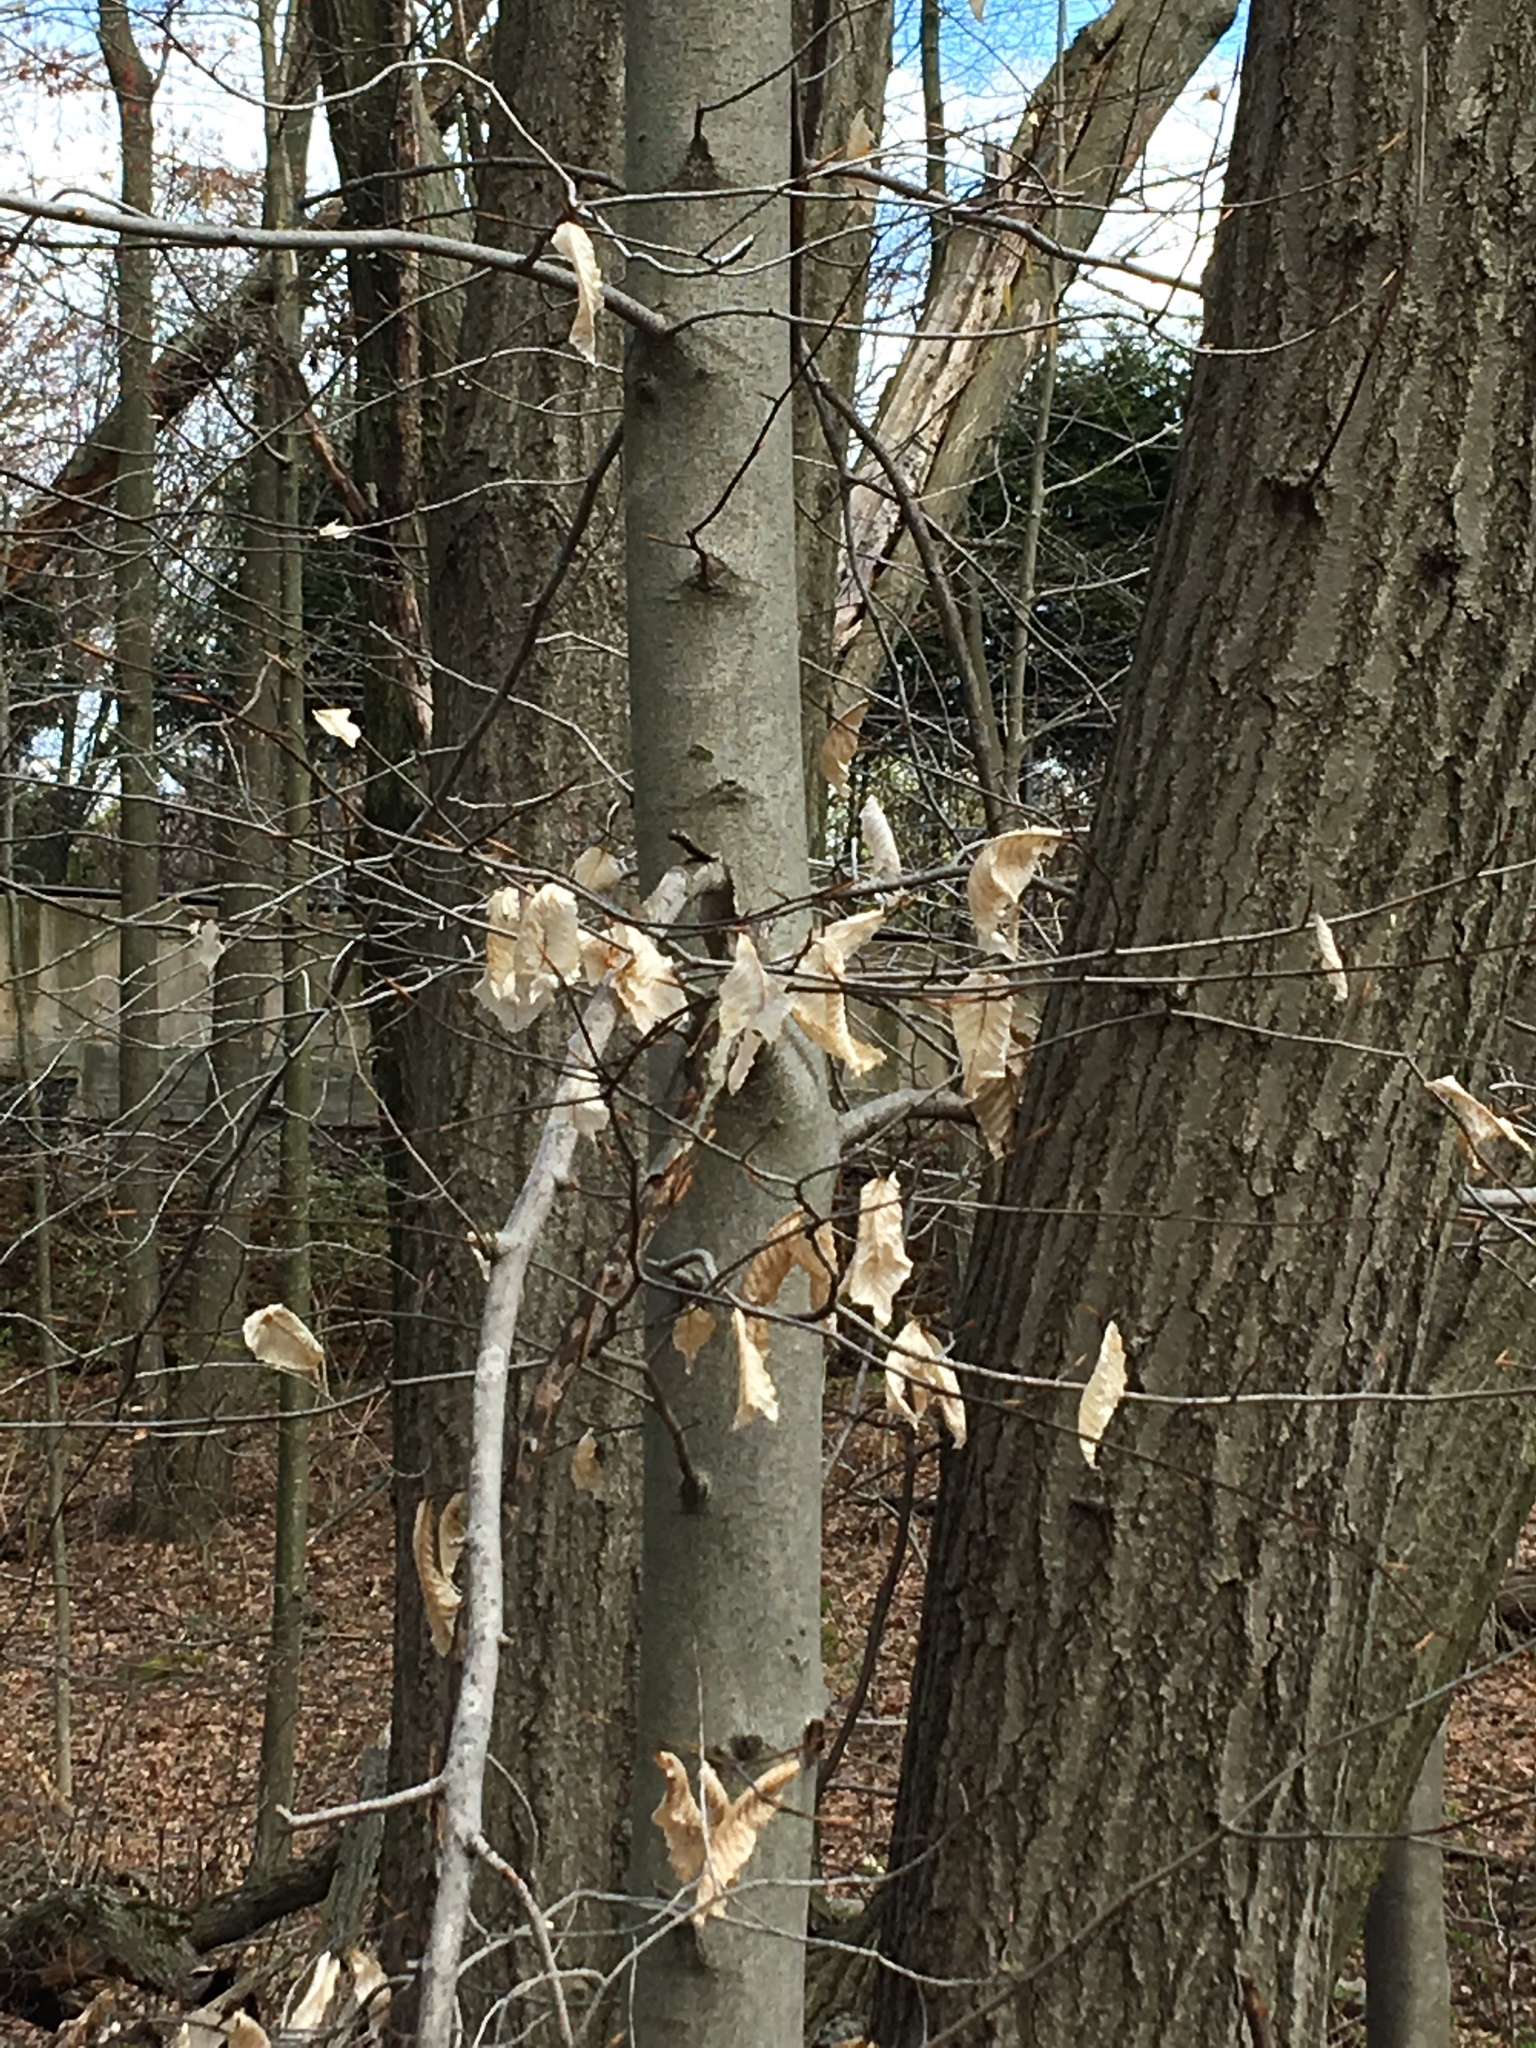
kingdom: Plantae
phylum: Tracheophyta
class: Magnoliopsida
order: Fagales
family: Fagaceae
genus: Fagus
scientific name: Fagus grandifolia
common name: American beech
